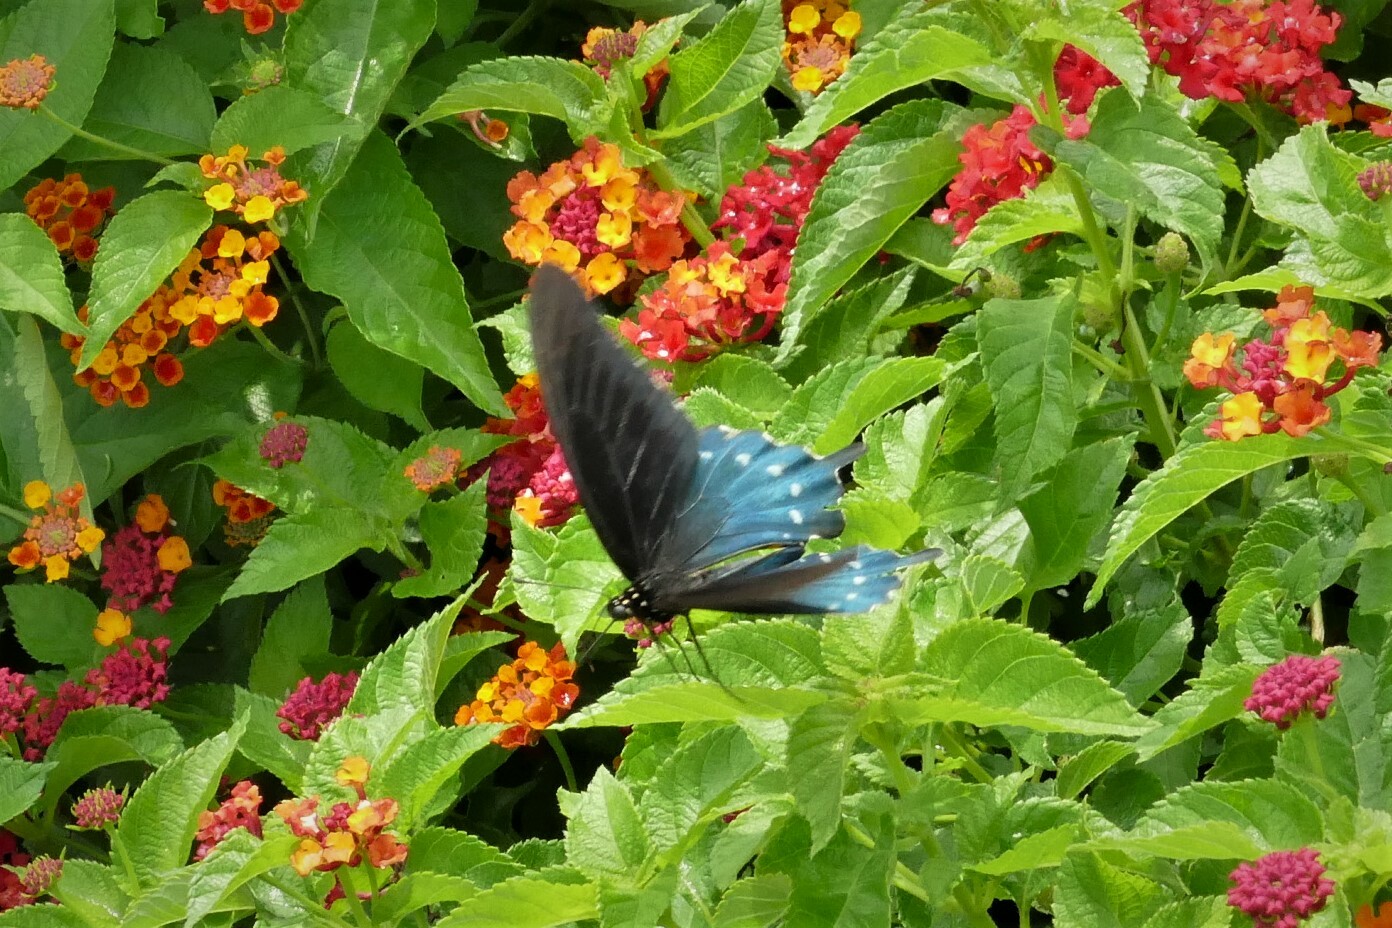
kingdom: Animalia
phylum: Arthropoda
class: Insecta
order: Lepidoptera
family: Papilionidae
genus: Battus
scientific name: Battus philenor
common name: Pipevine swallowtail
